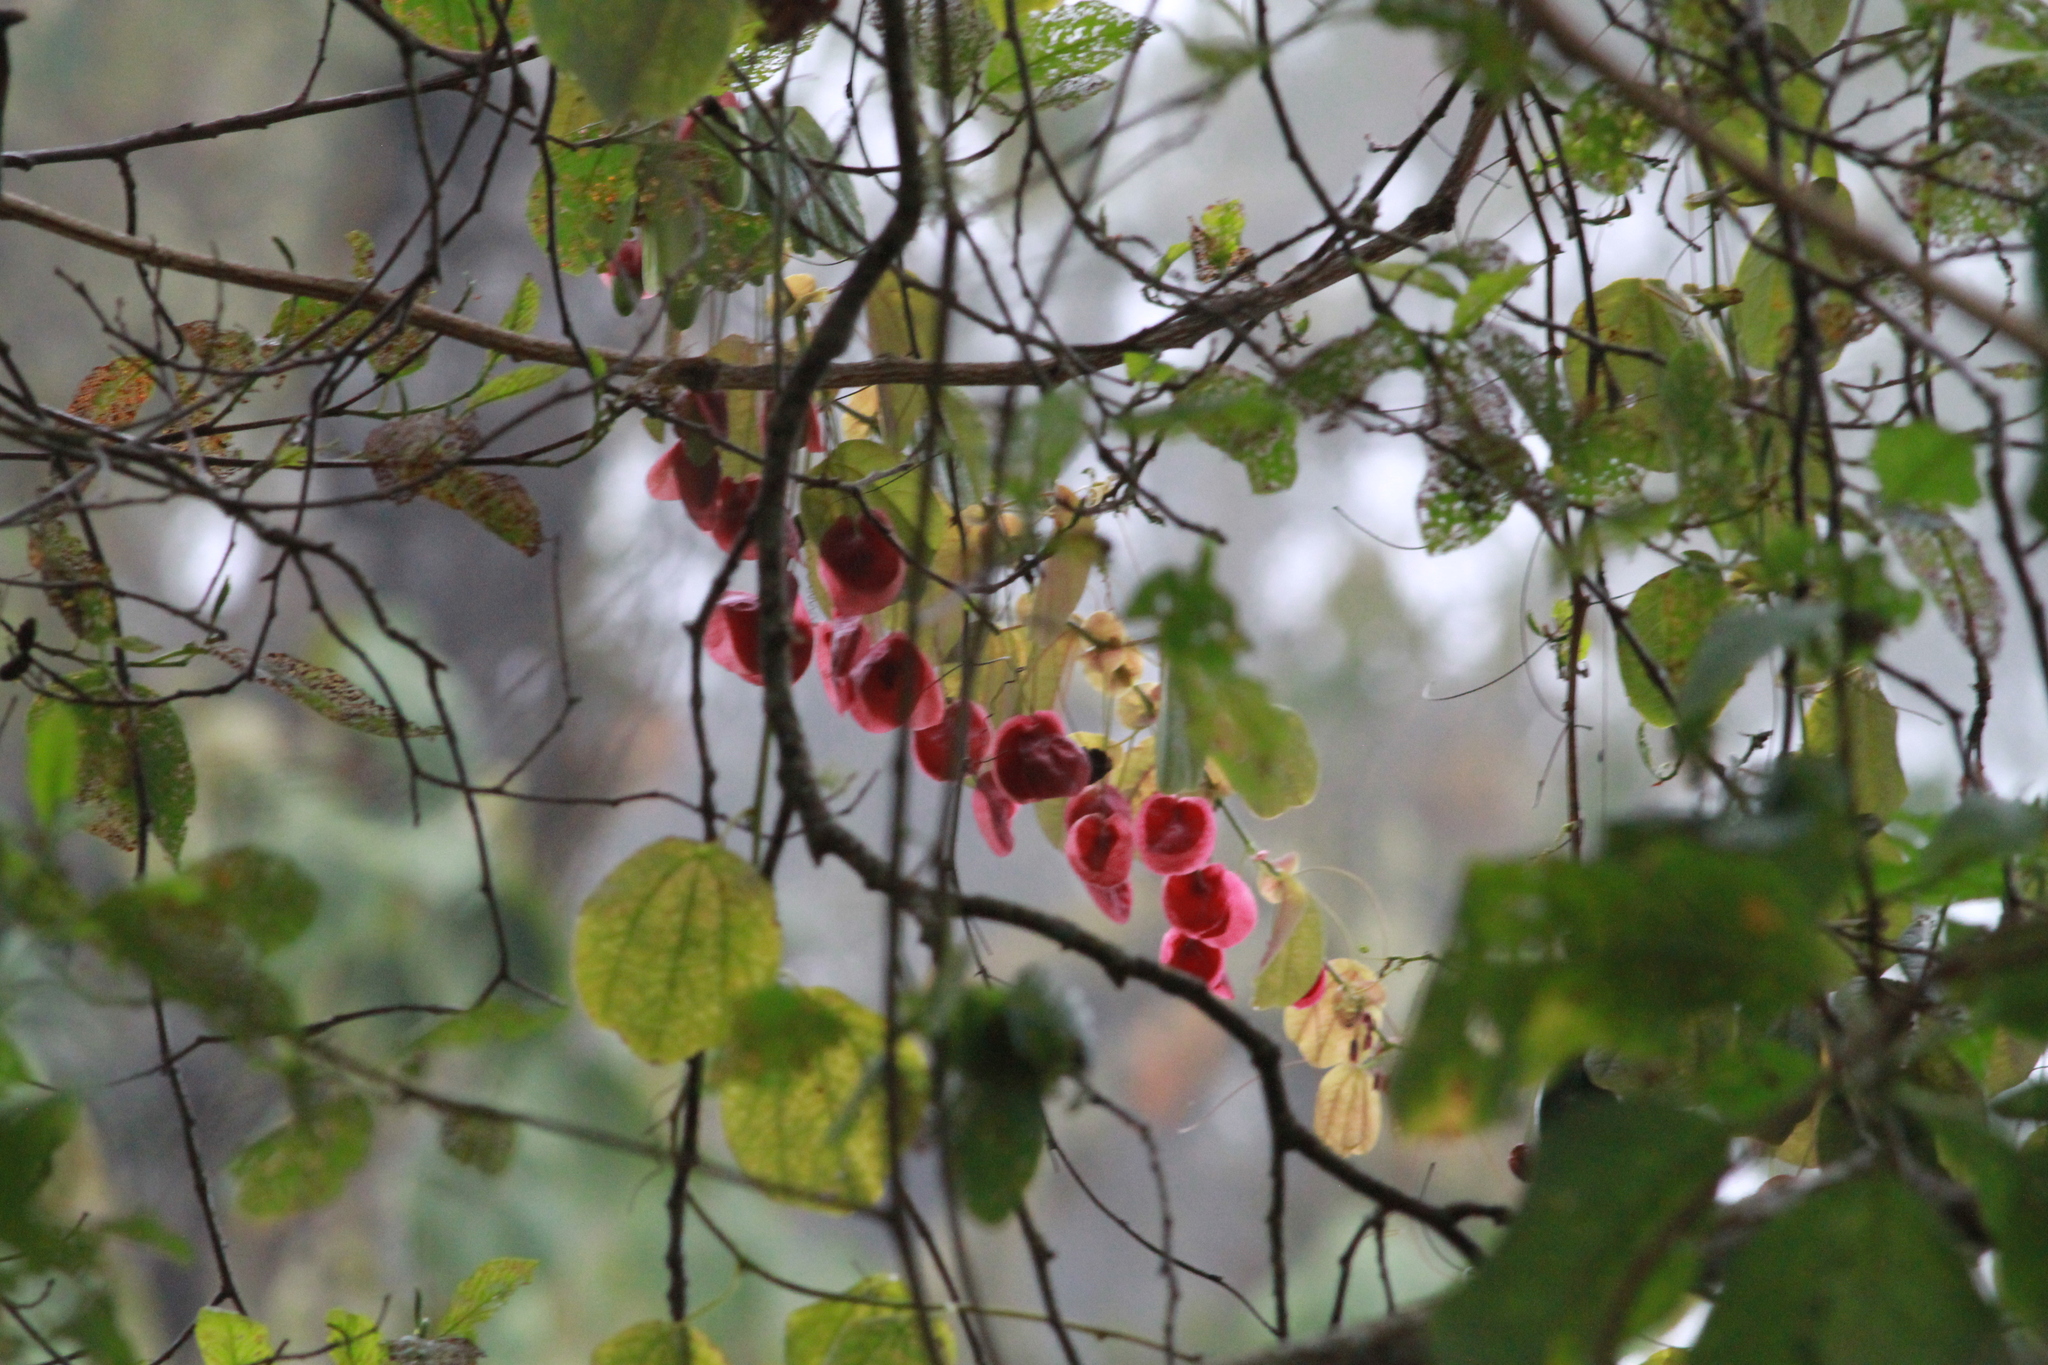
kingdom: Plantae
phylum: Tracheophyta
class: Magnoliopsida
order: Malpighiales
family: Passifloraceae
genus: Passiflora
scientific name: Passiflora membranacea
